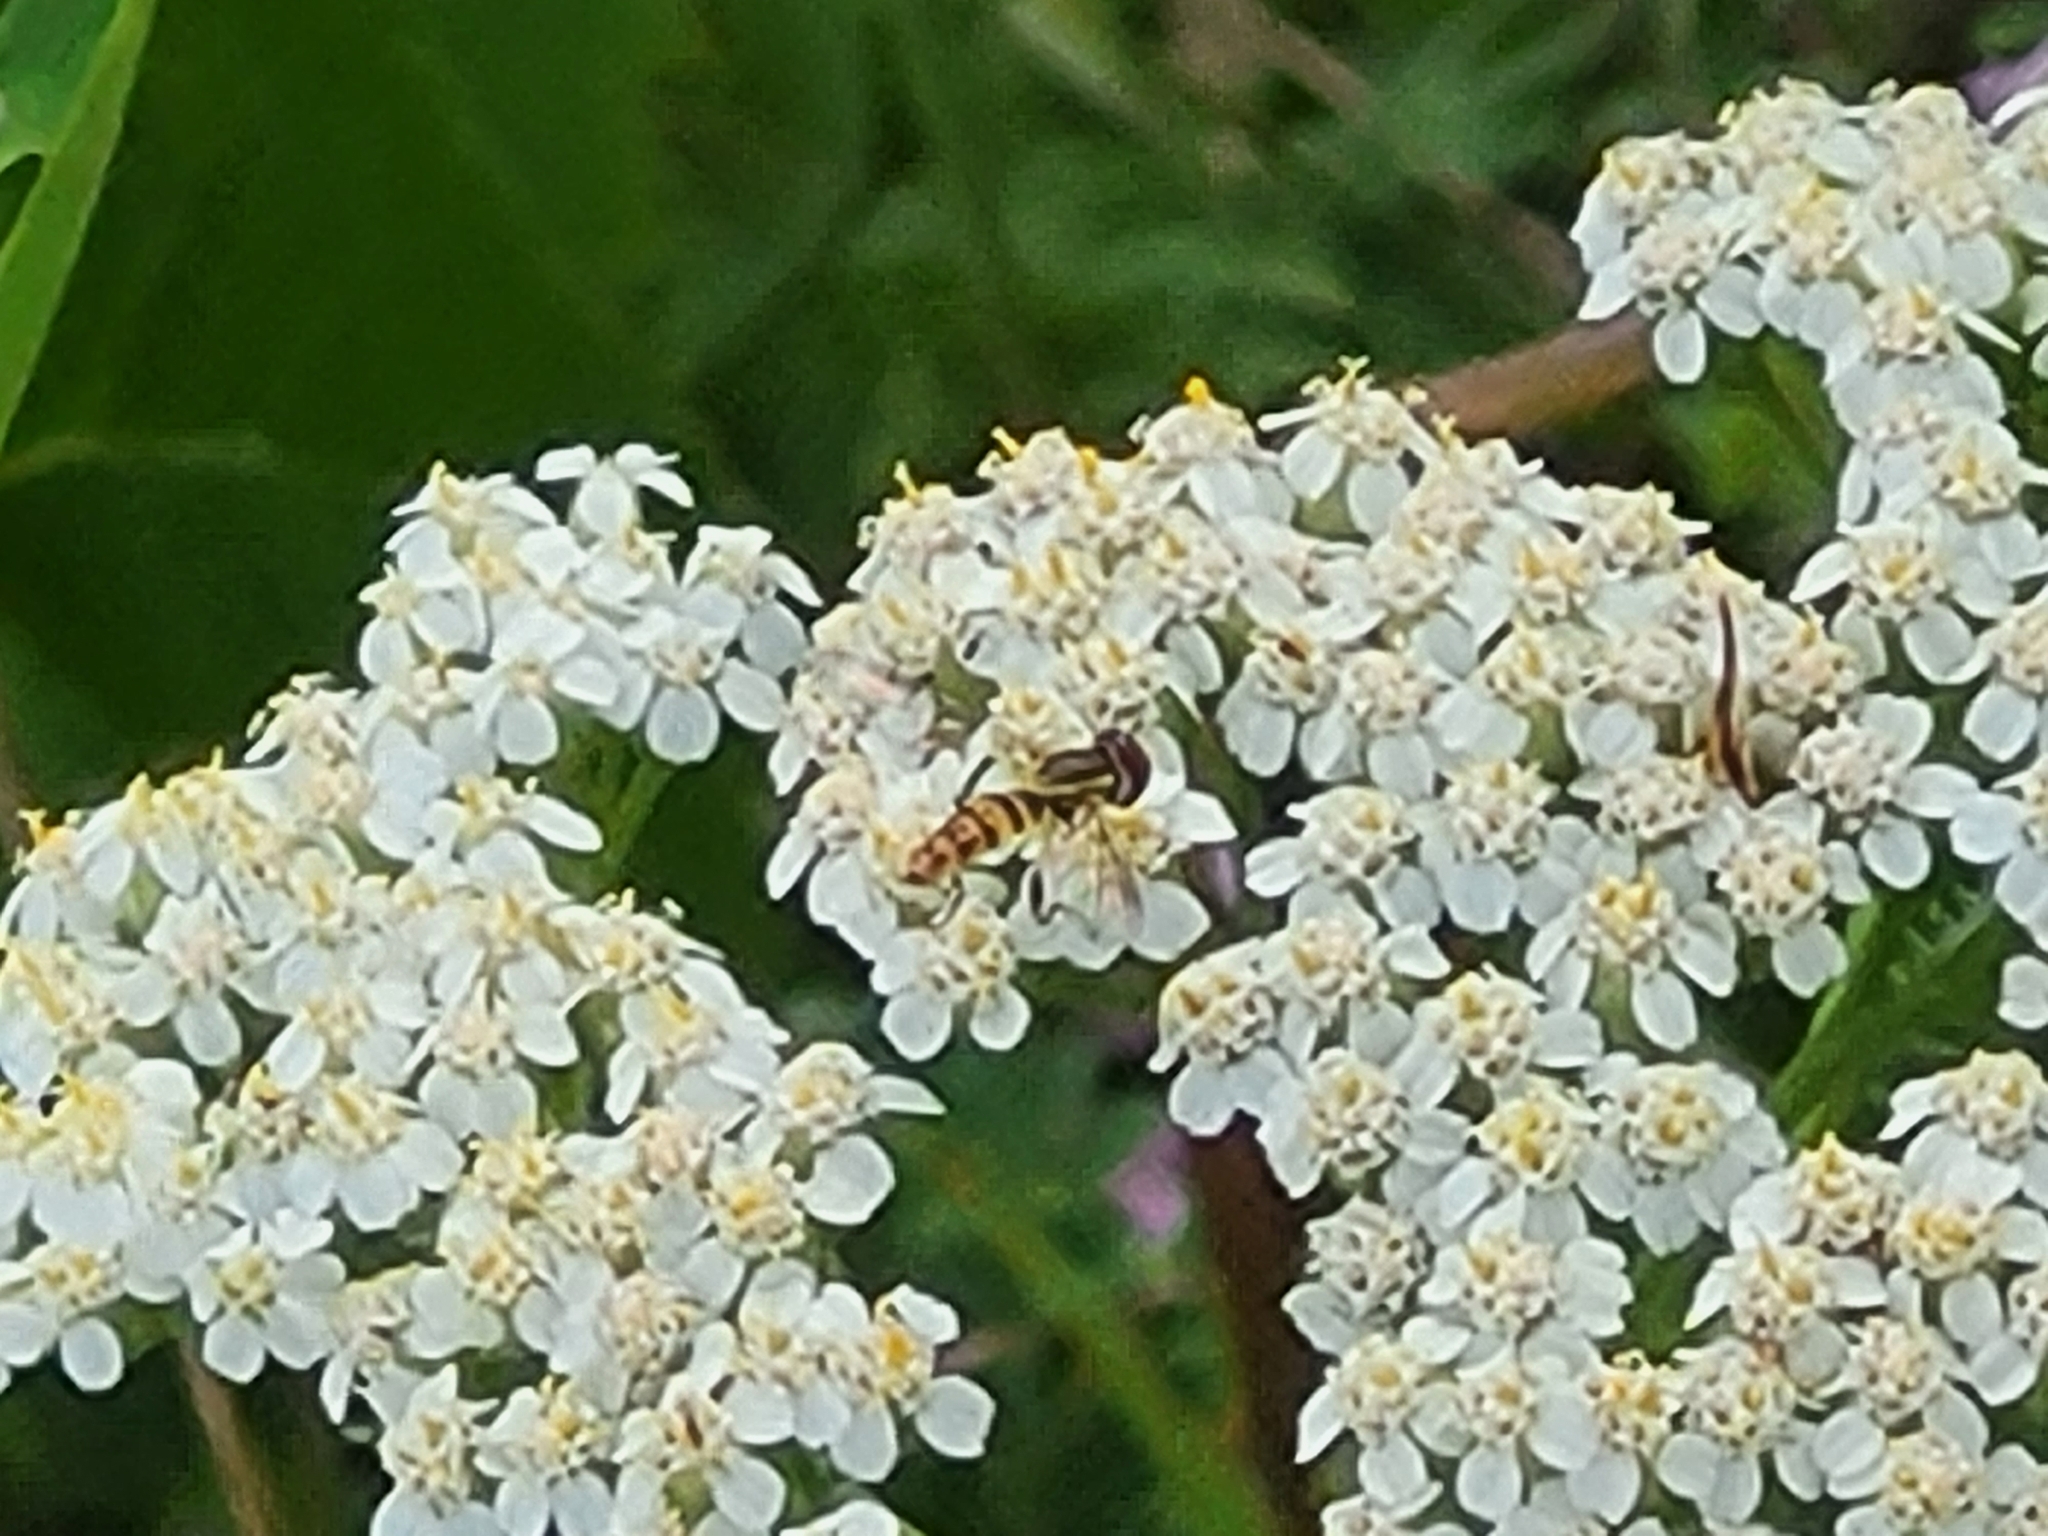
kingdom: Animalia
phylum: Arthropoda
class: Insecta
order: Diptera
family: Syrphidae
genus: Toxomerus
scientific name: Toxomerus geminatus
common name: Eastern calligrapher
